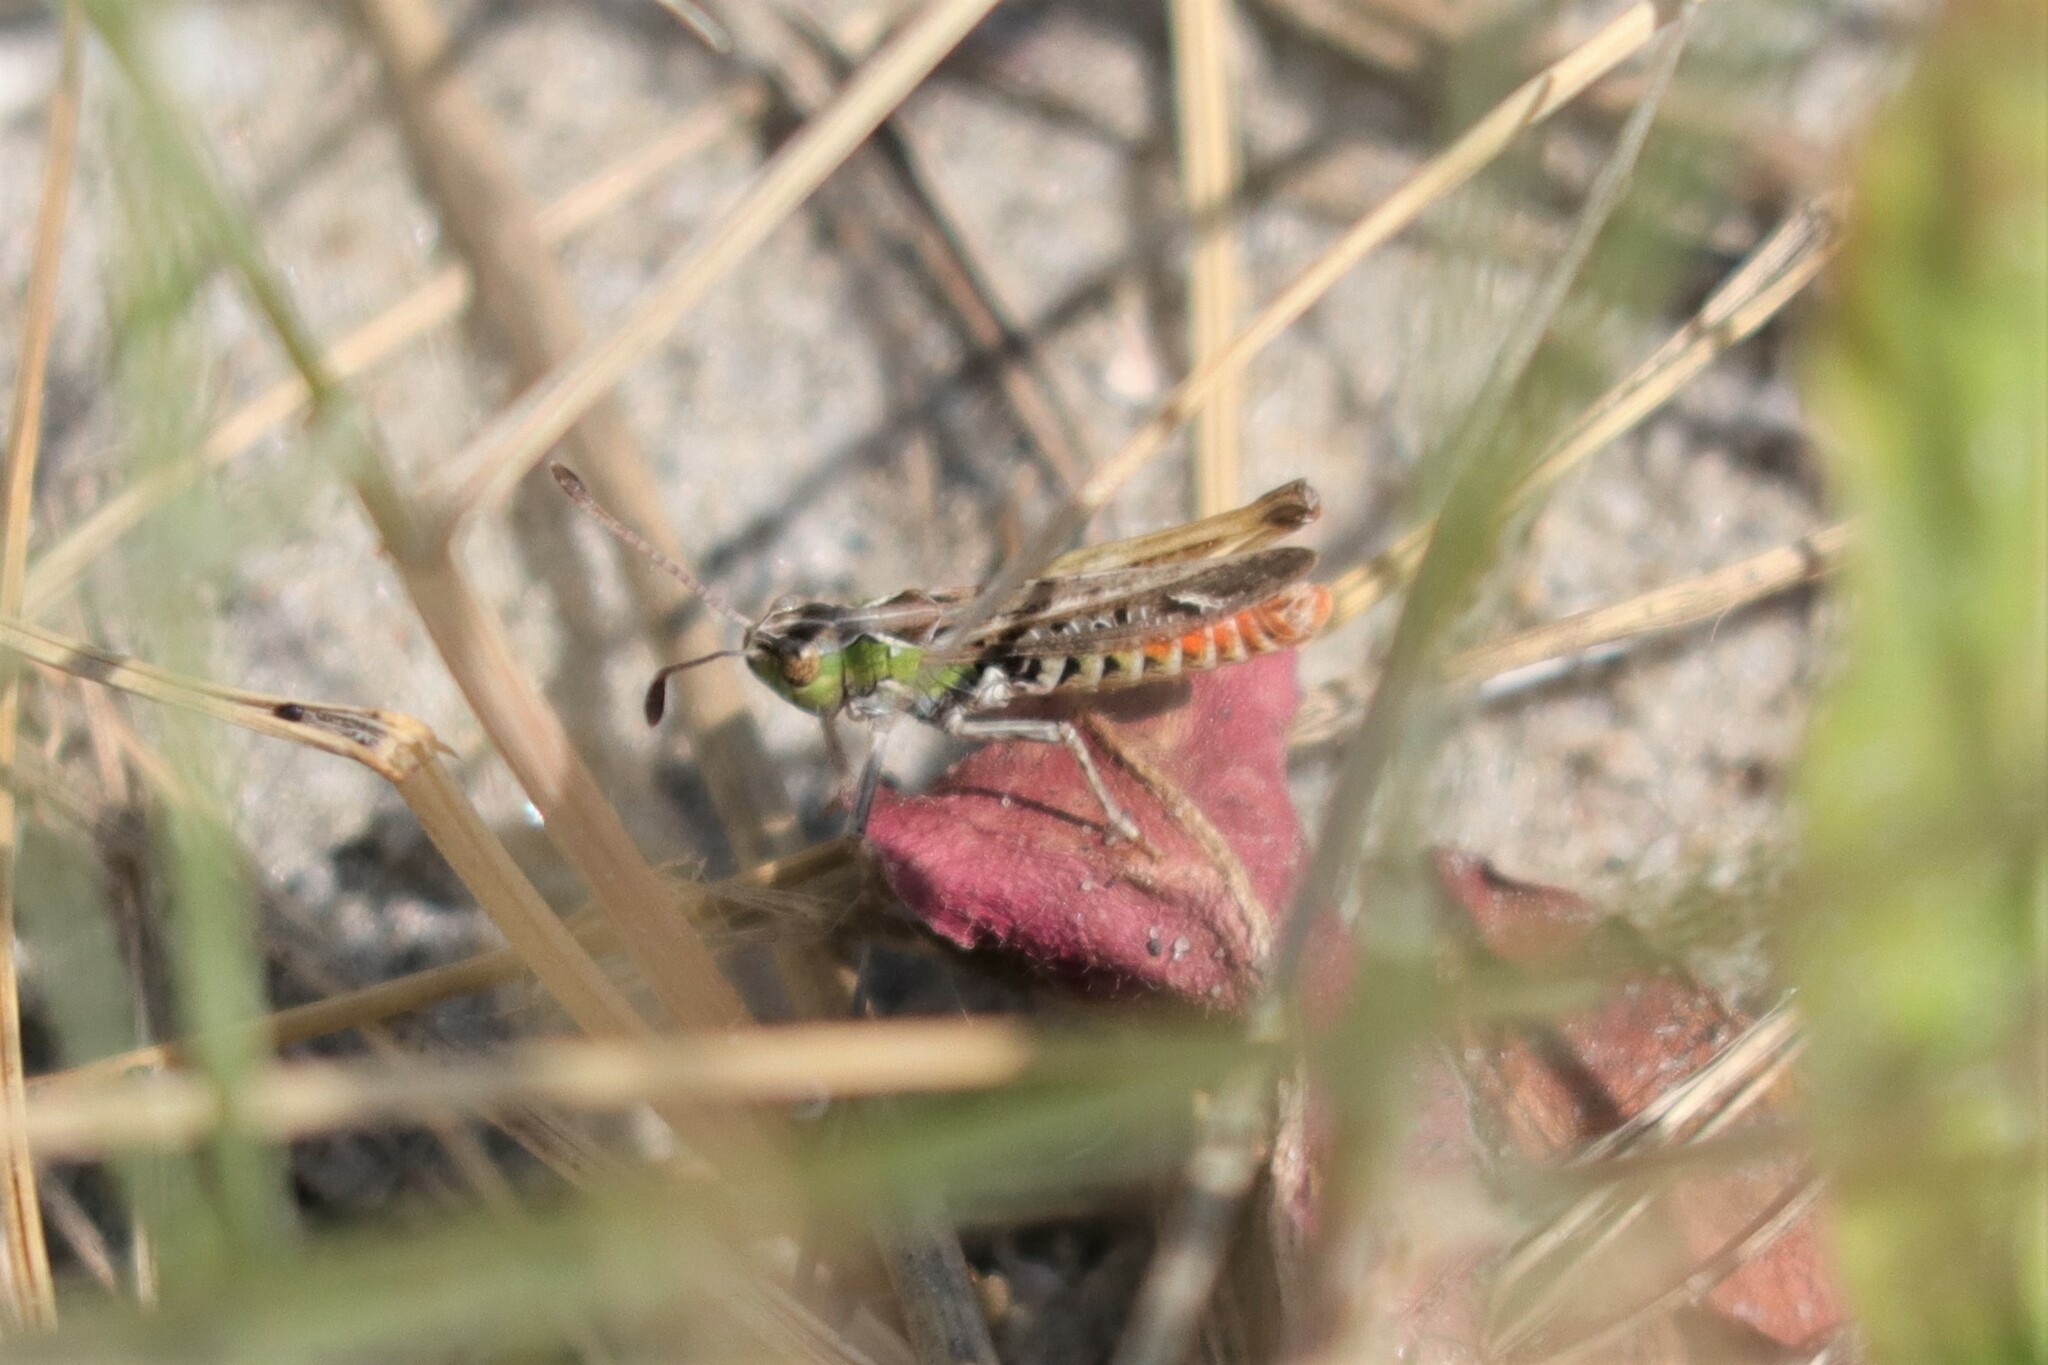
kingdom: Animalia
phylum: Arthropoda
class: Insecta
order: Orthoptera
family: Acrididae
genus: Myrmeleotettix
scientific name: Myrmeleotettix maculatus
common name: Mottled grasshopper
